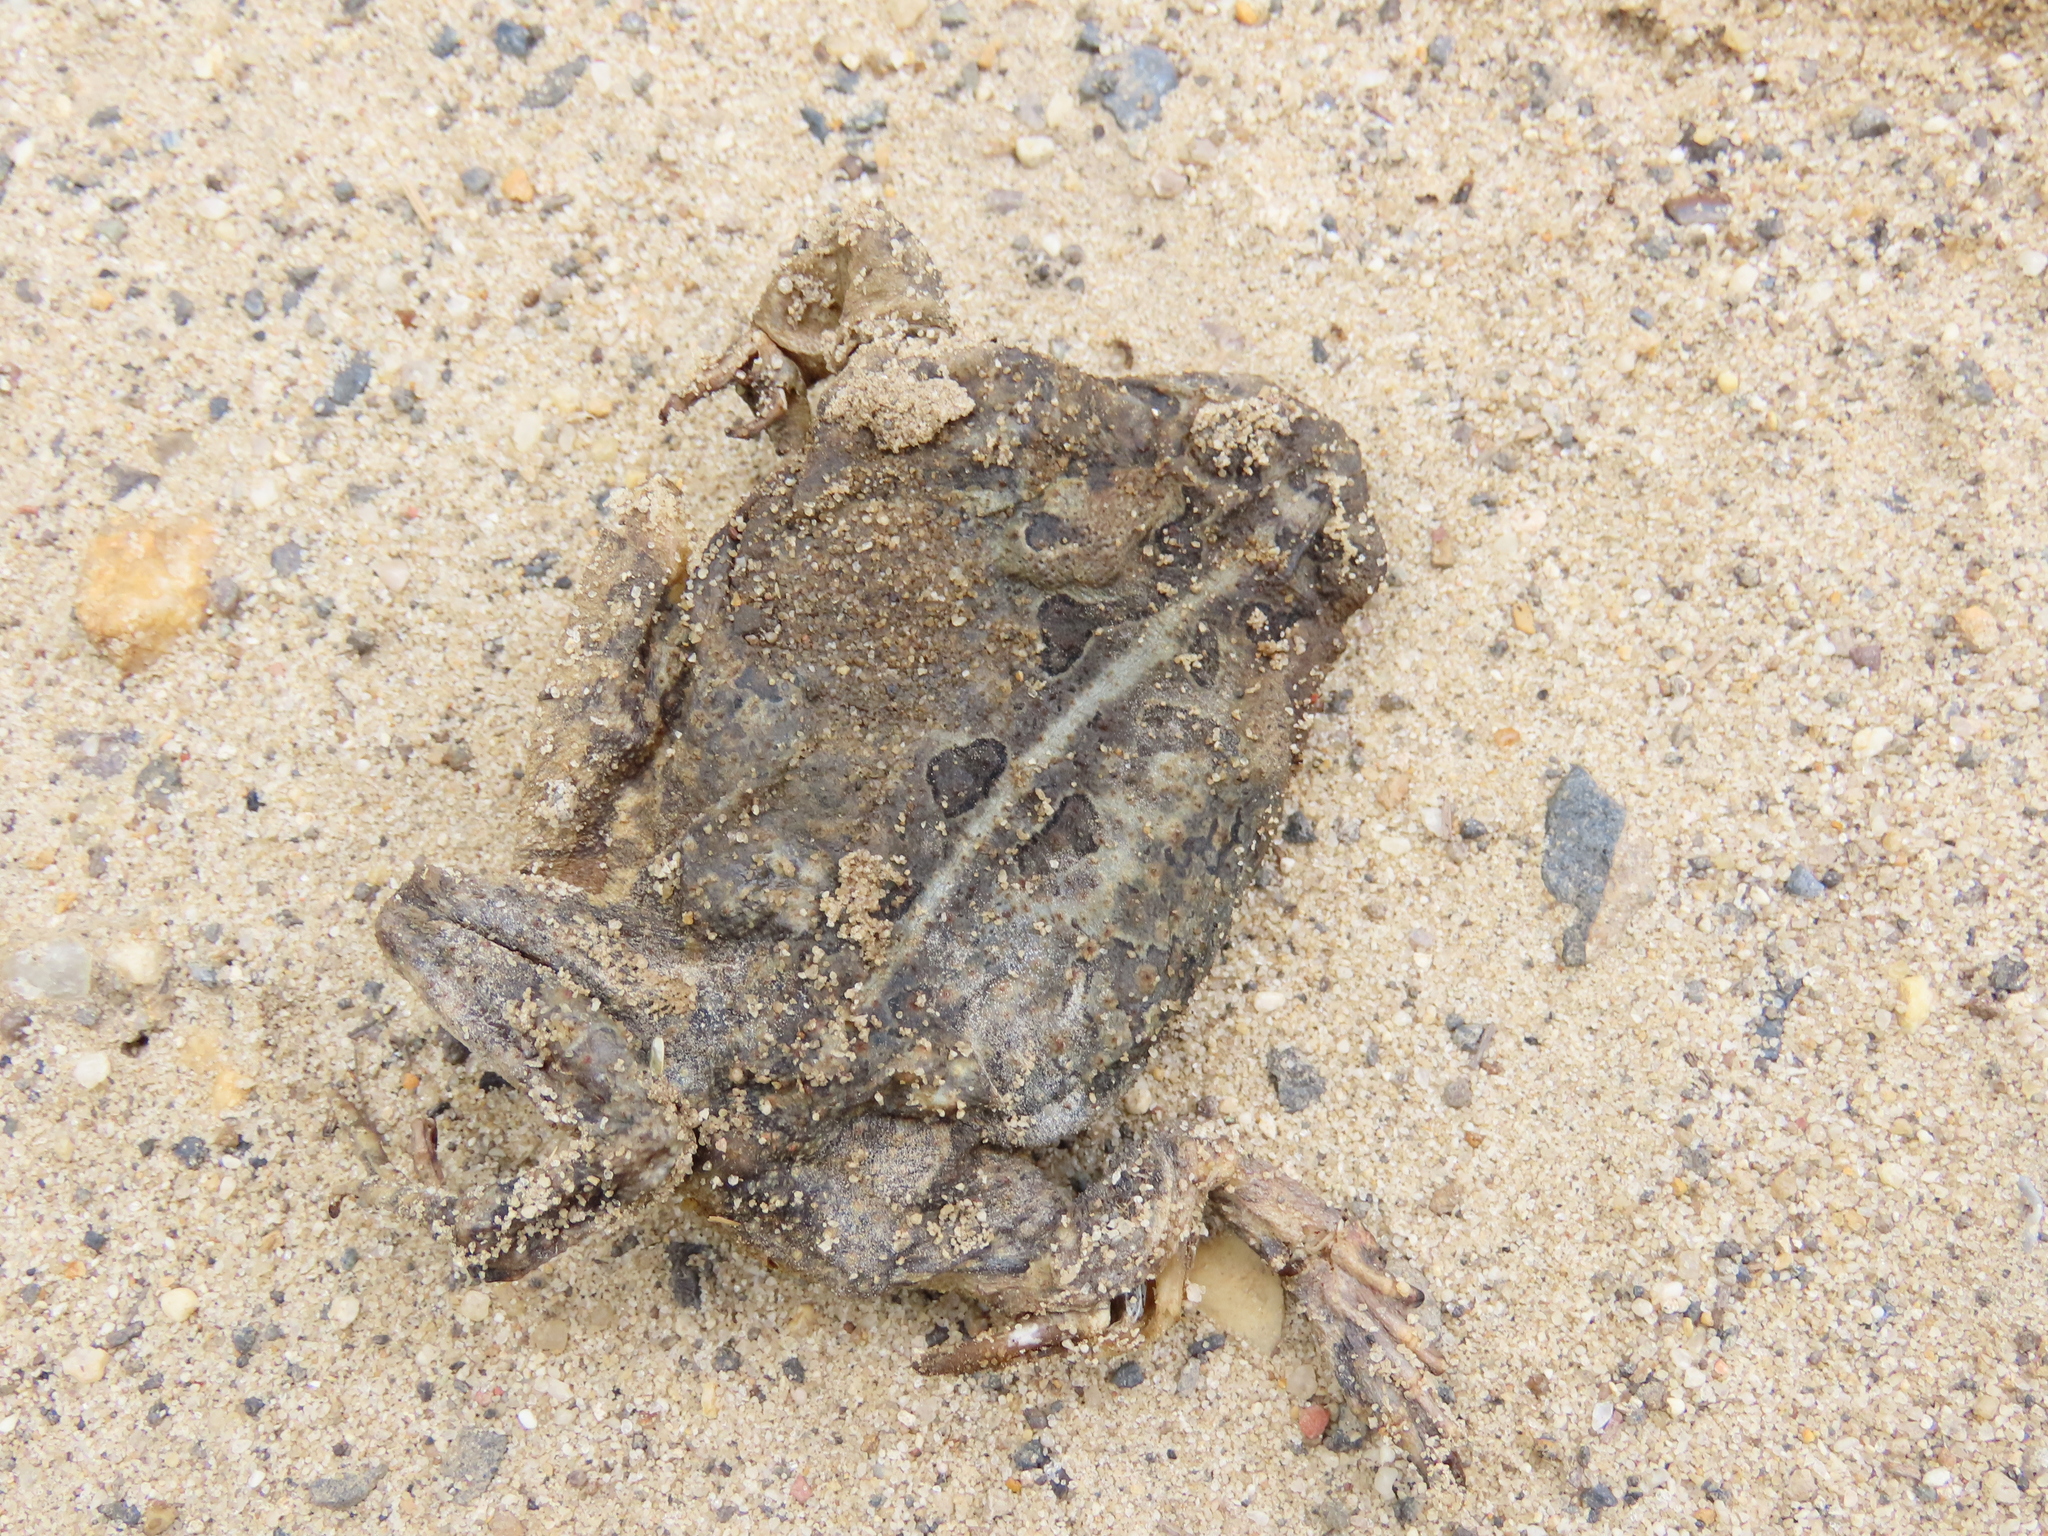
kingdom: Animalia
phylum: Chordata
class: Amphibia
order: Anura
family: Bufonidae
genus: Anaxyrus
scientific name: Anaxyrus fowleri
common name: Fowler's toad
